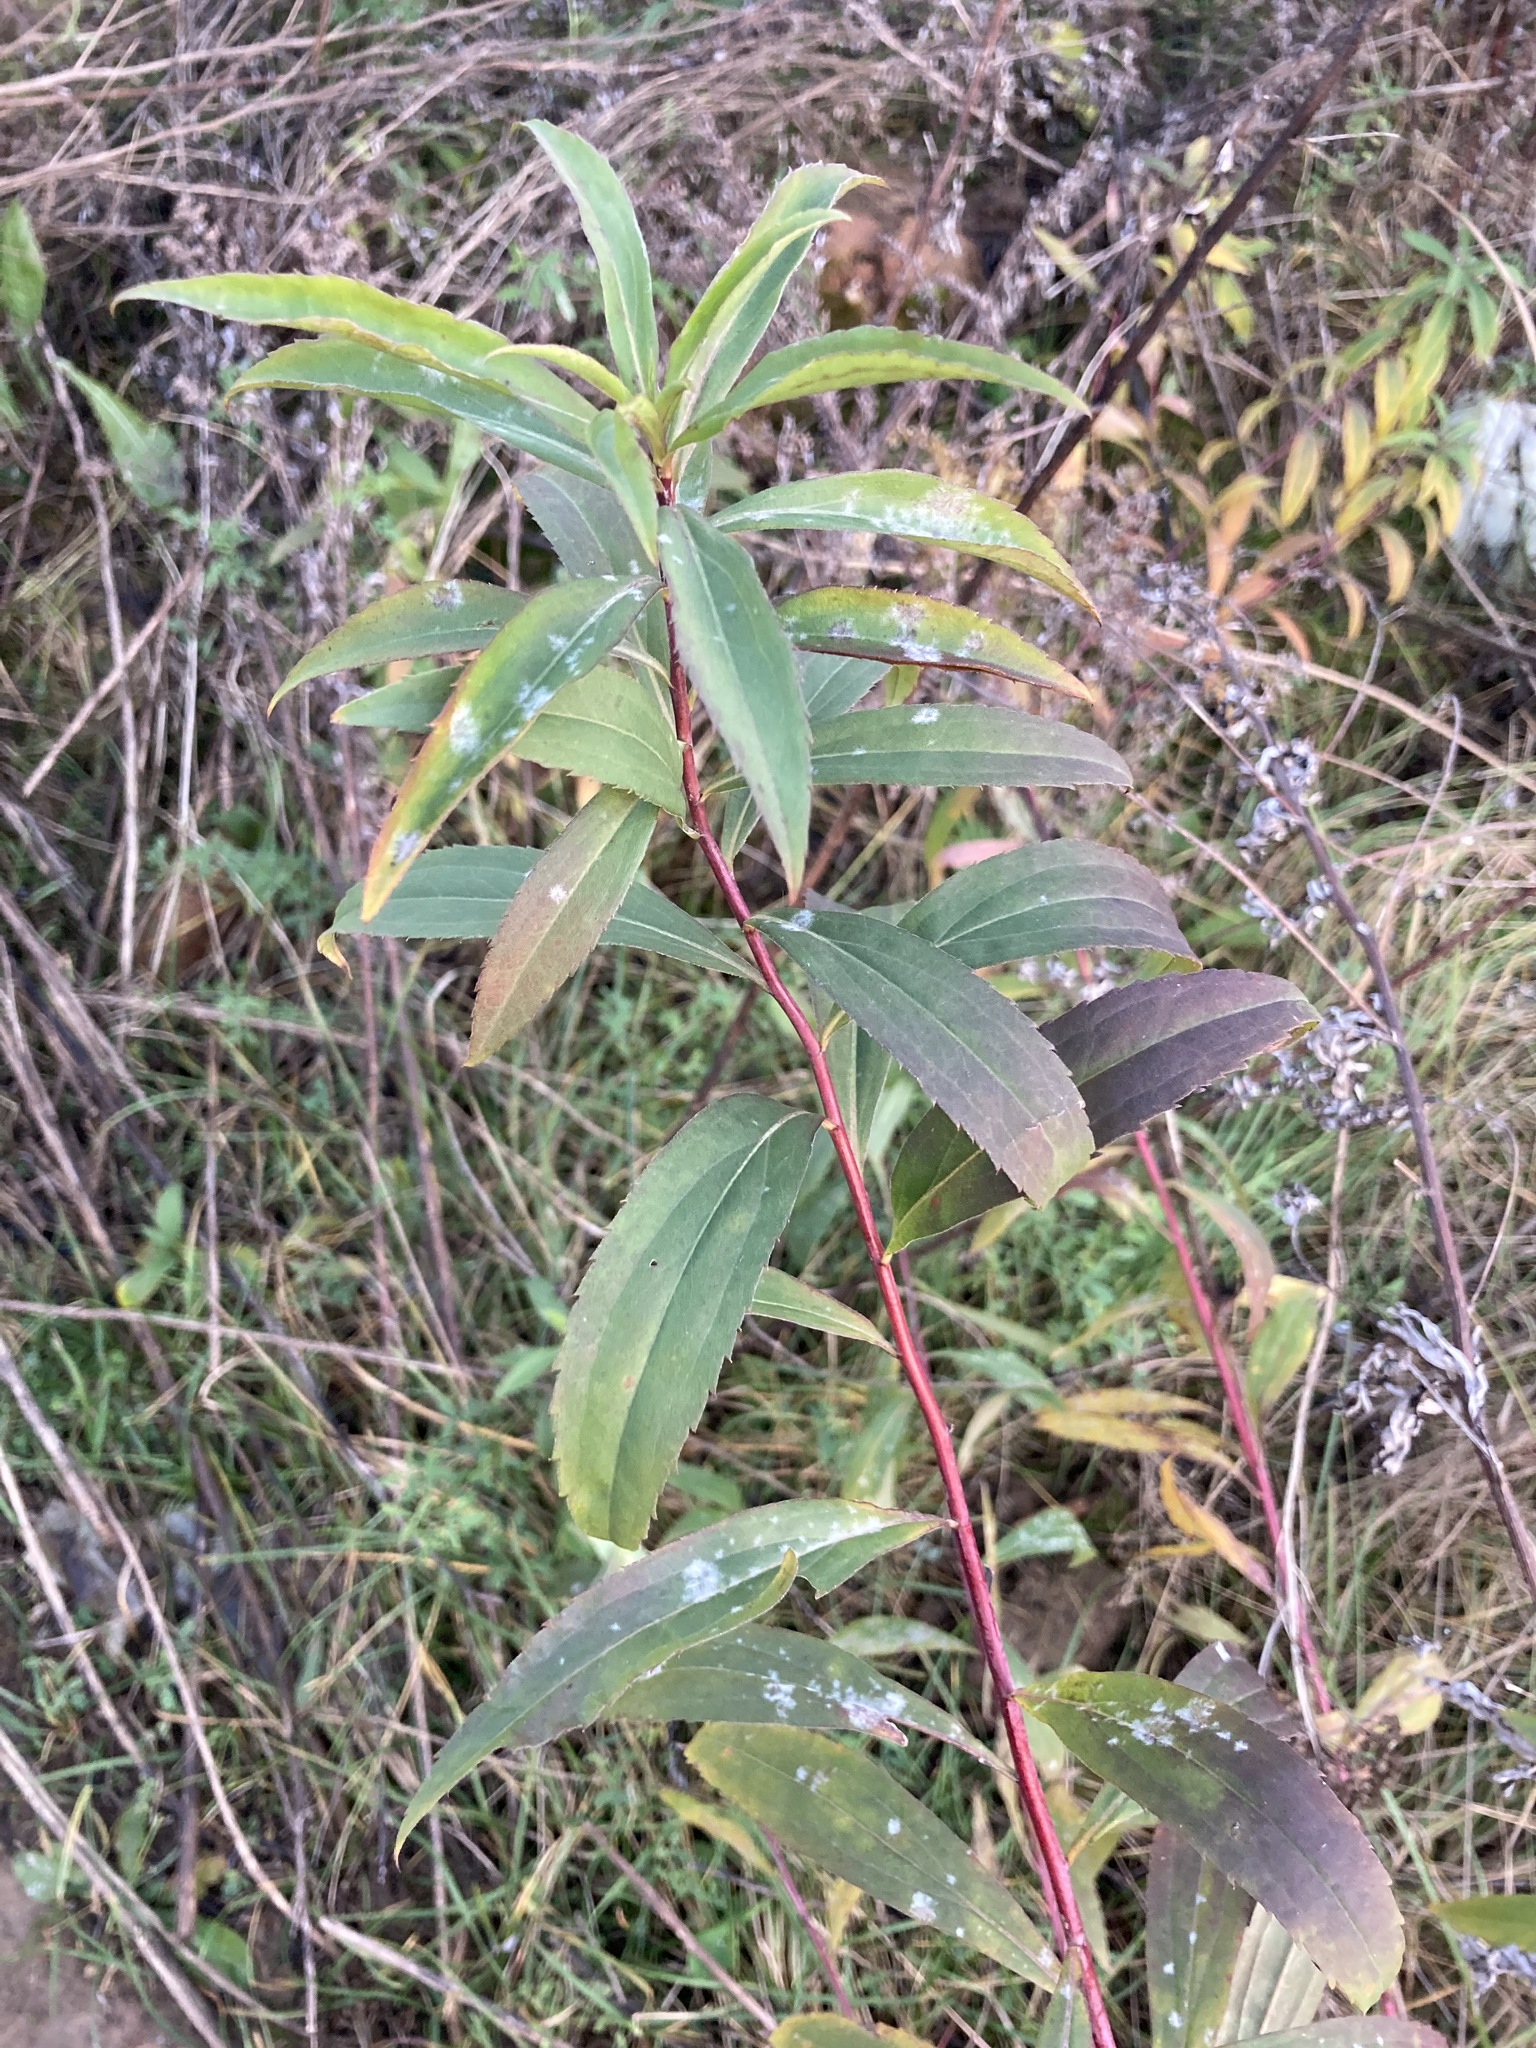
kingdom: Plantae
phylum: Tracheophyta
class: Magnoliopsida
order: Asterales
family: Asteraceae
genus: Solidago
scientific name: Solidago gigantea
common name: Giant goldenrod
